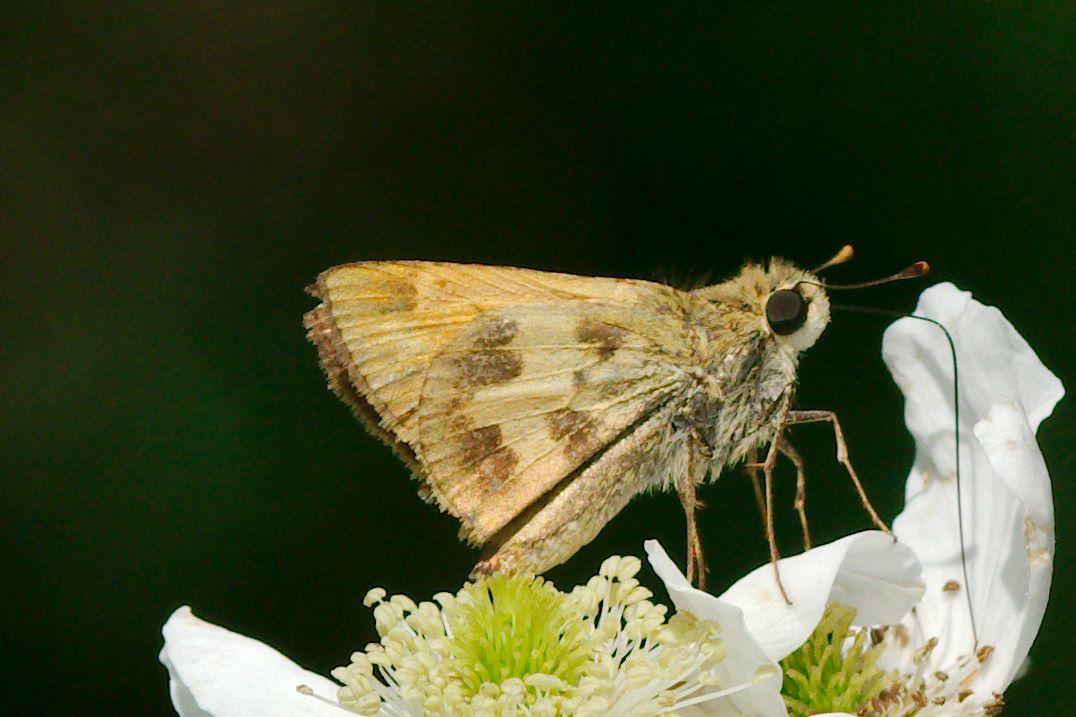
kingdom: Animalia
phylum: Arthropoda
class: Insecta
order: Lepidoptera
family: Hesperiidae
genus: Polites
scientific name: Polites vibex
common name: Whirlabout
